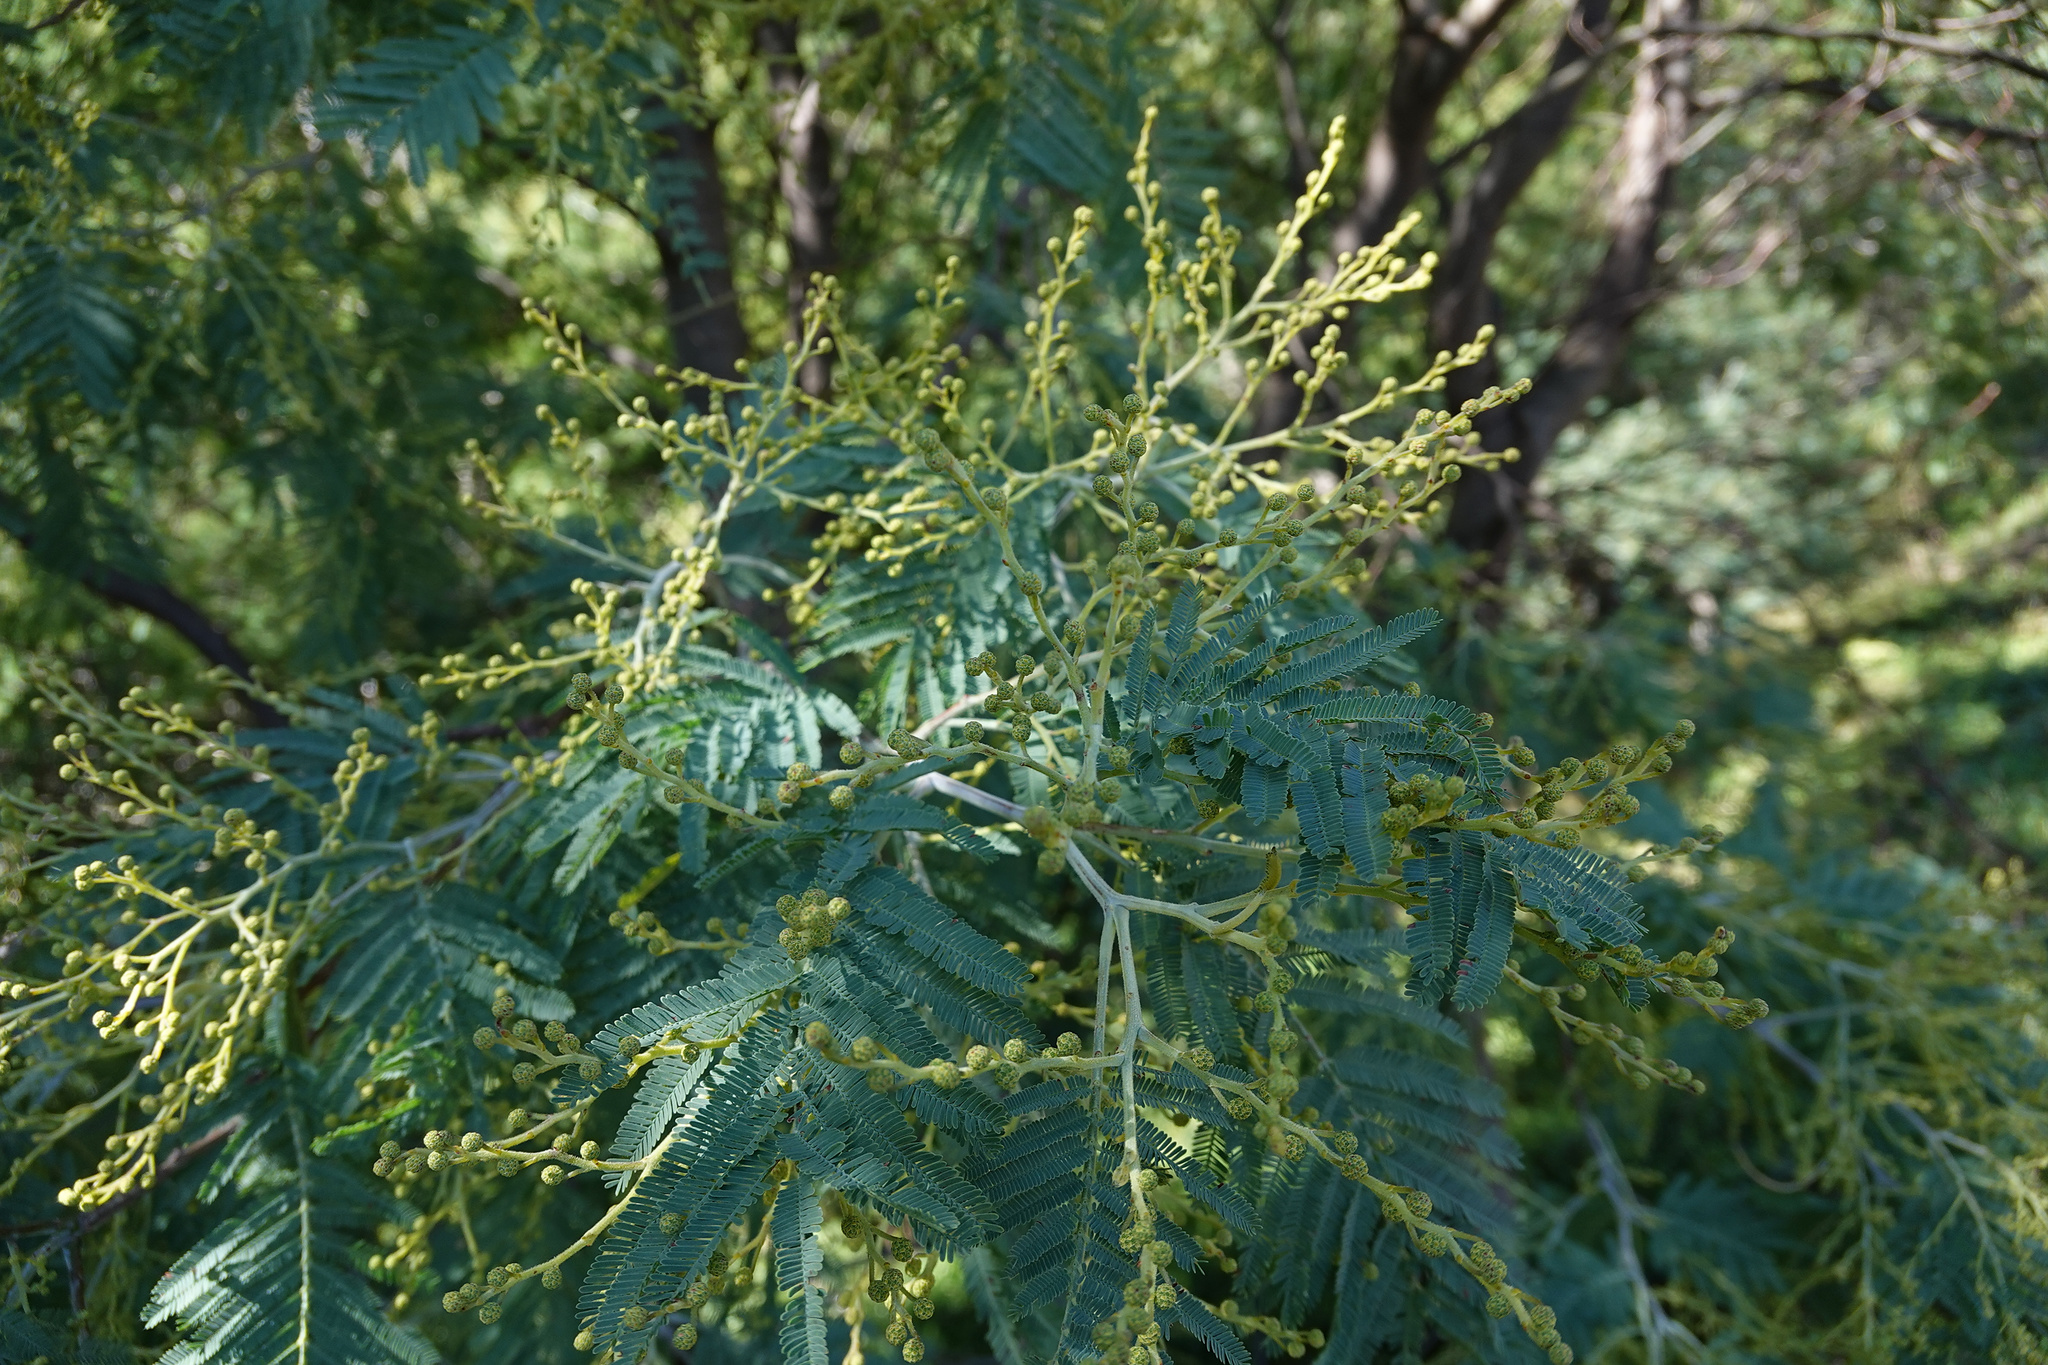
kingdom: Plantae
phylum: Tracheophyta
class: Magnoliopsida
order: Fabales
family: Fabaceae
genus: Acacia
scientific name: Acacia dealbata
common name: Silver wattle
